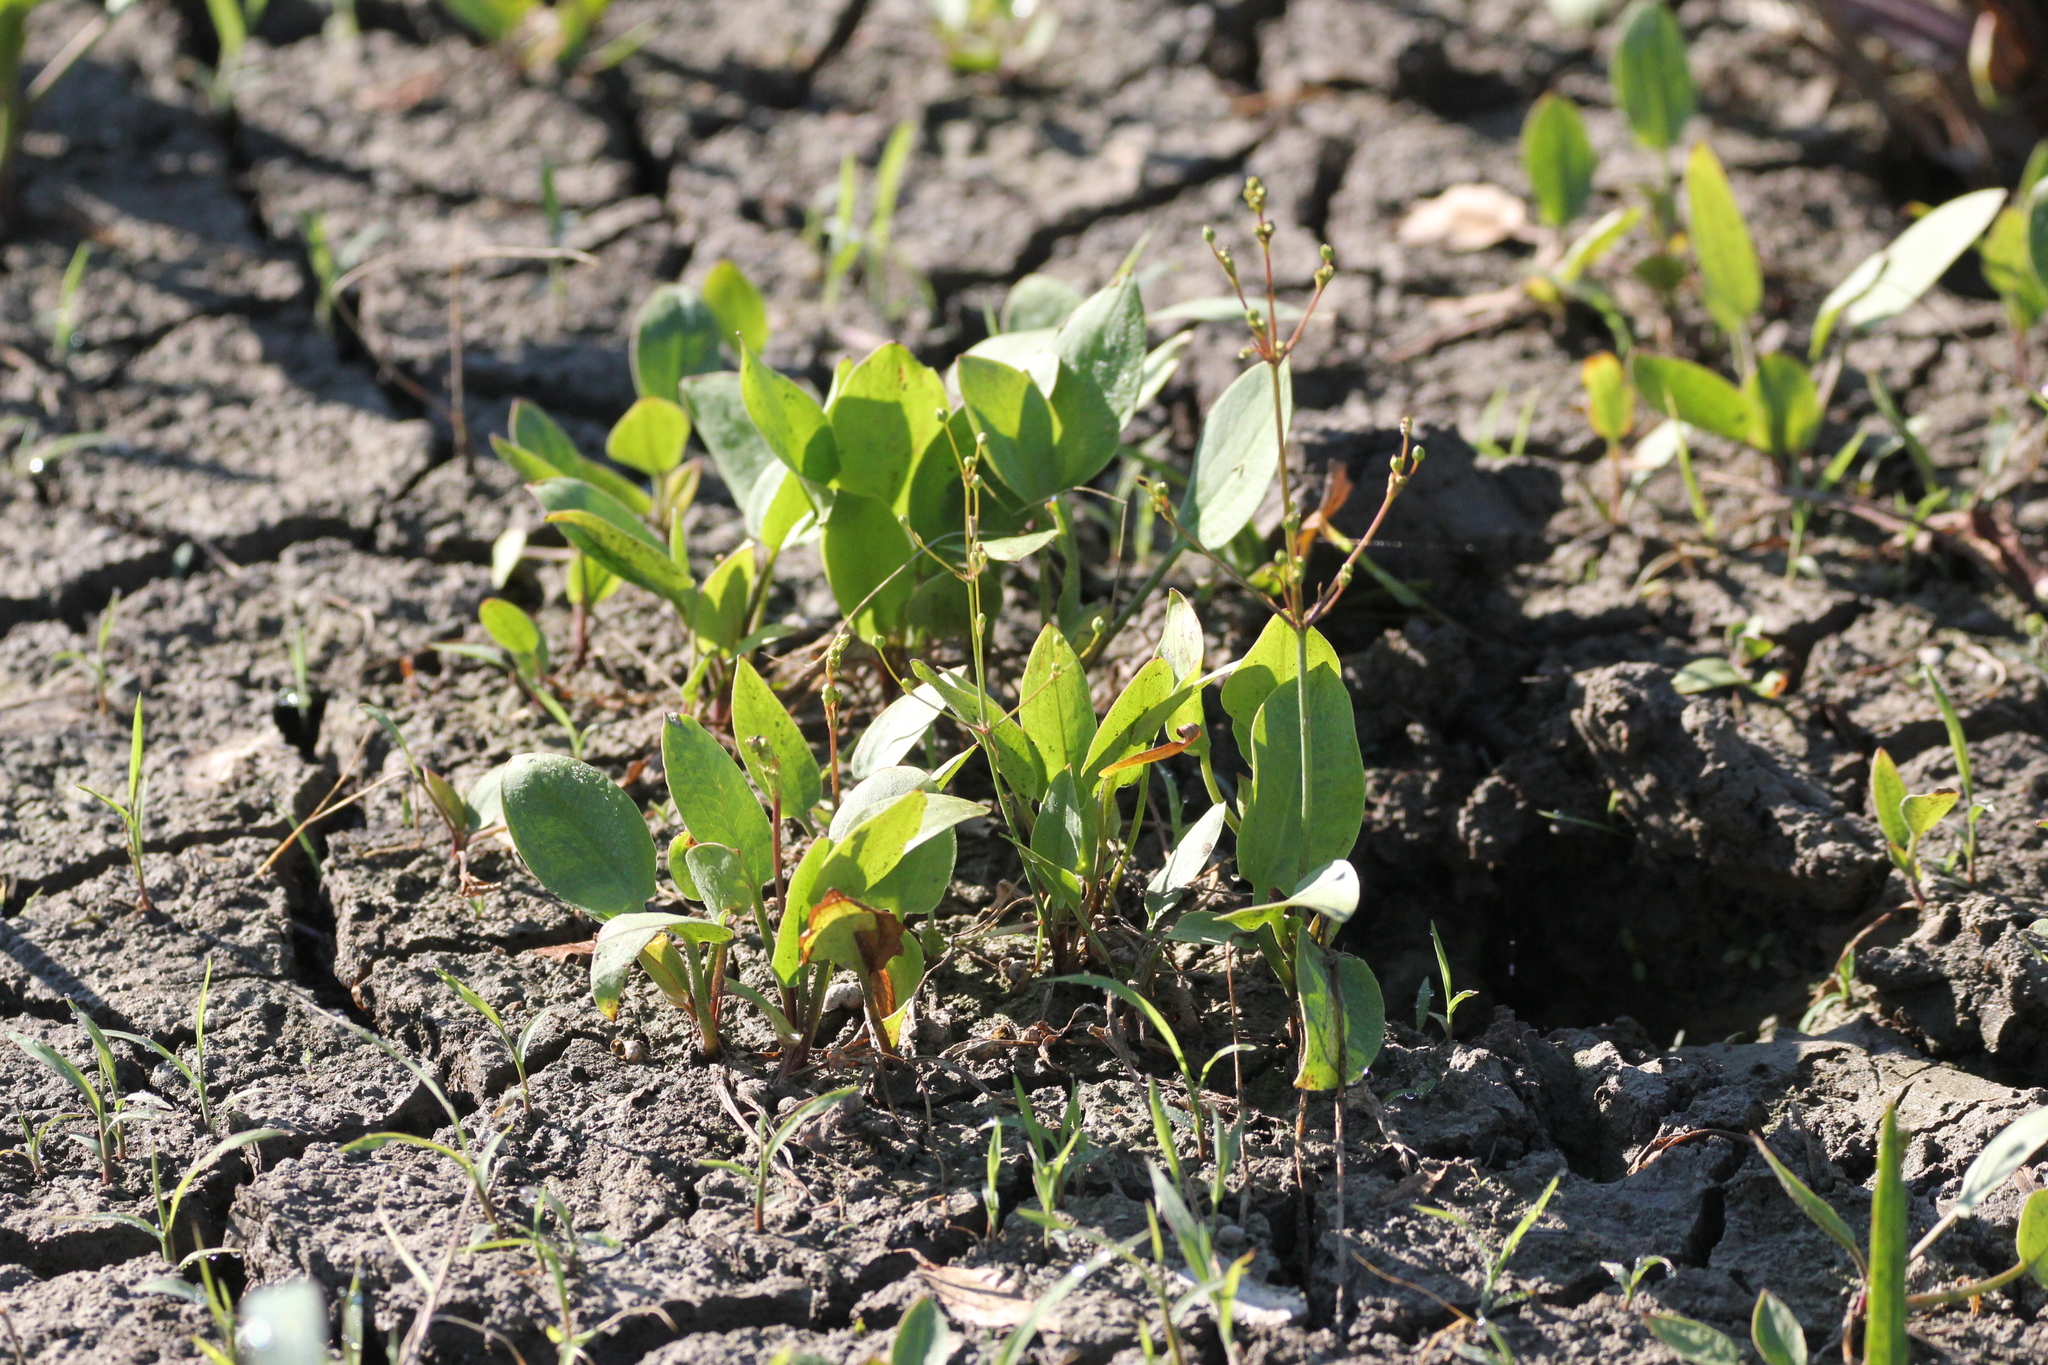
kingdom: Plantae
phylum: Tracheophyta
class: Liliopsida
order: Alismatales
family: Alismataceae
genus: Alisma
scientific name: Alisma subcordatum
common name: Southern water-plantain
